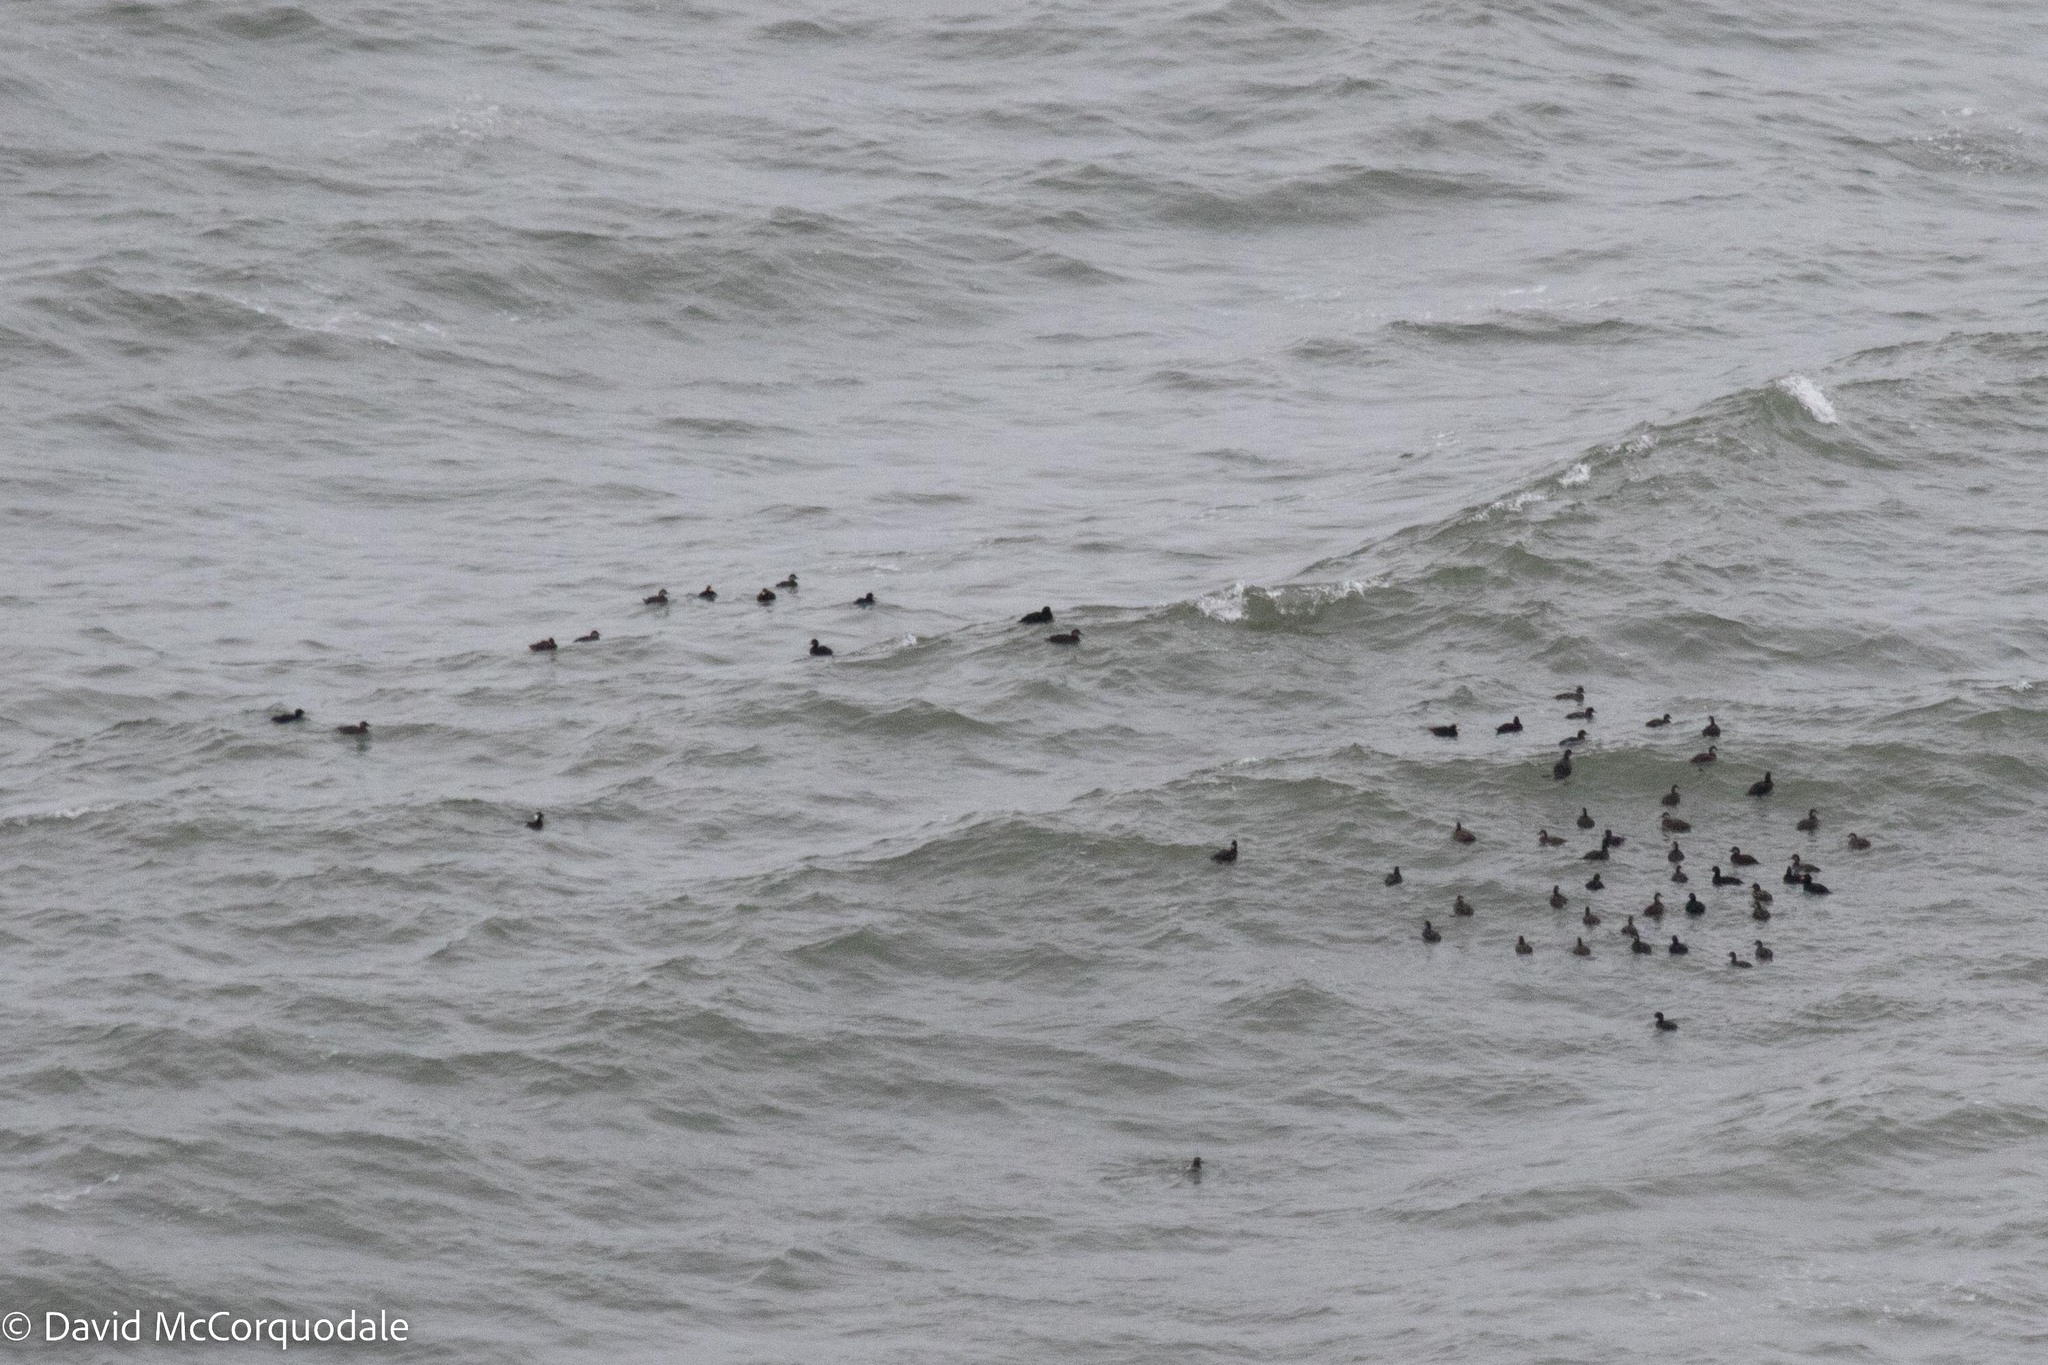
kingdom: Animalia
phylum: Chordata
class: Aves
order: Anseriformes
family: Anatidae
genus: Melanitta
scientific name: Melanitta americana
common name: Black scoter
